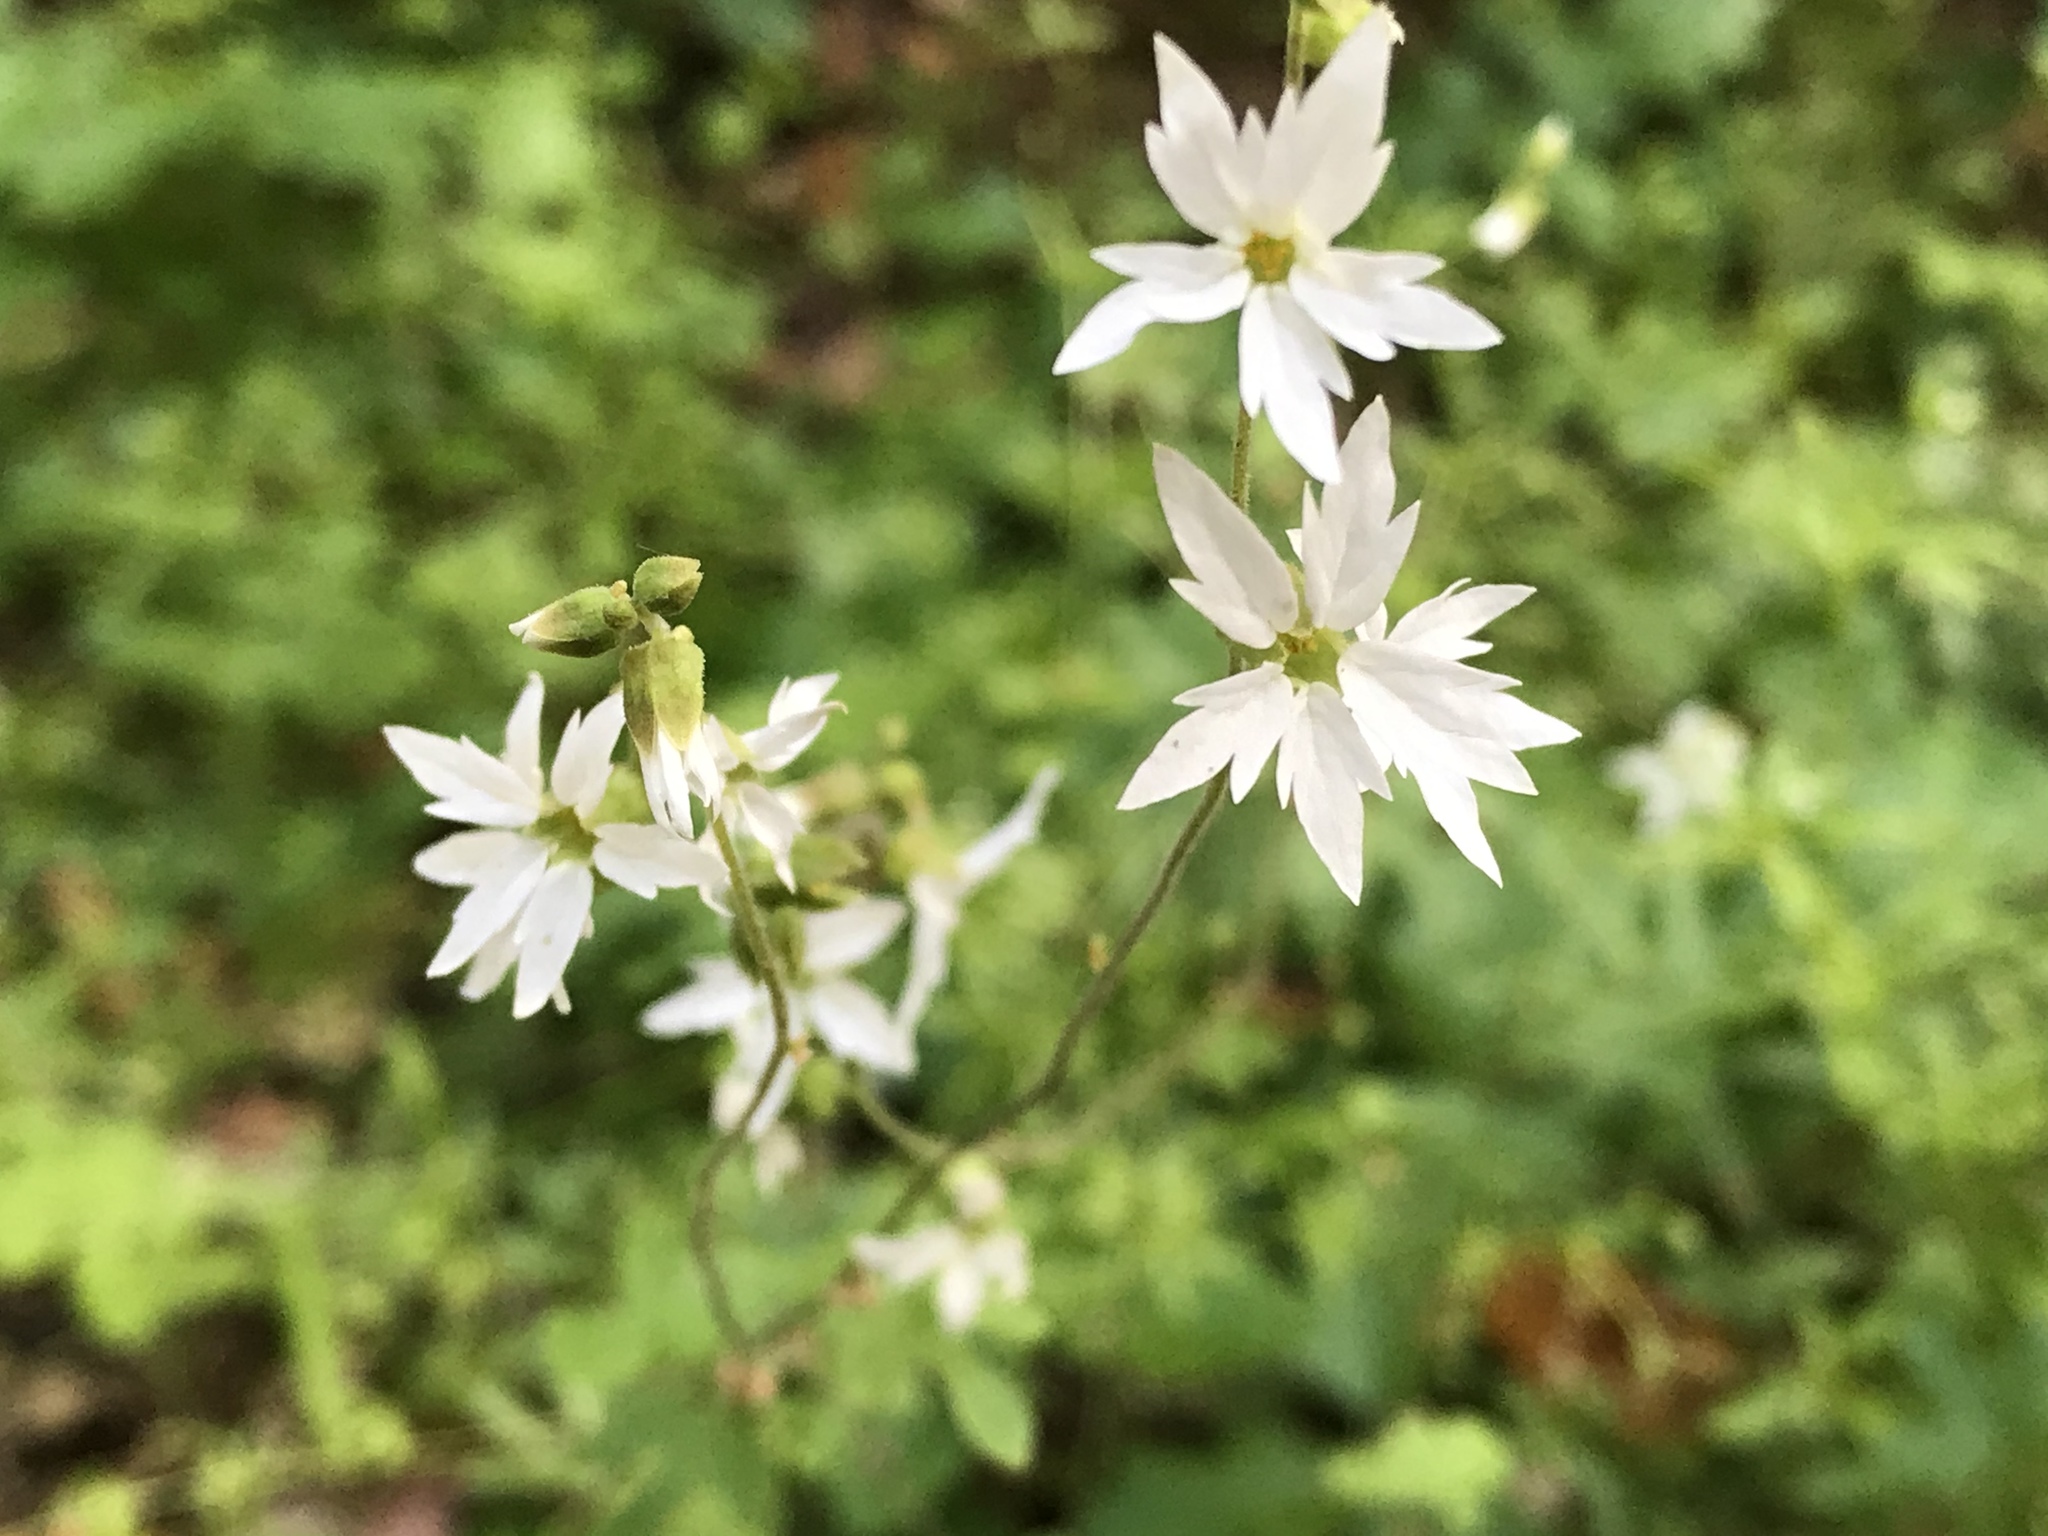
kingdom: Plantae
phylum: Tracheophyta
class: Magnoliopsida
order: Saxifragales
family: Saxifragaceae
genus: Lithophragma
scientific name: Lithophragma heterophyllum
